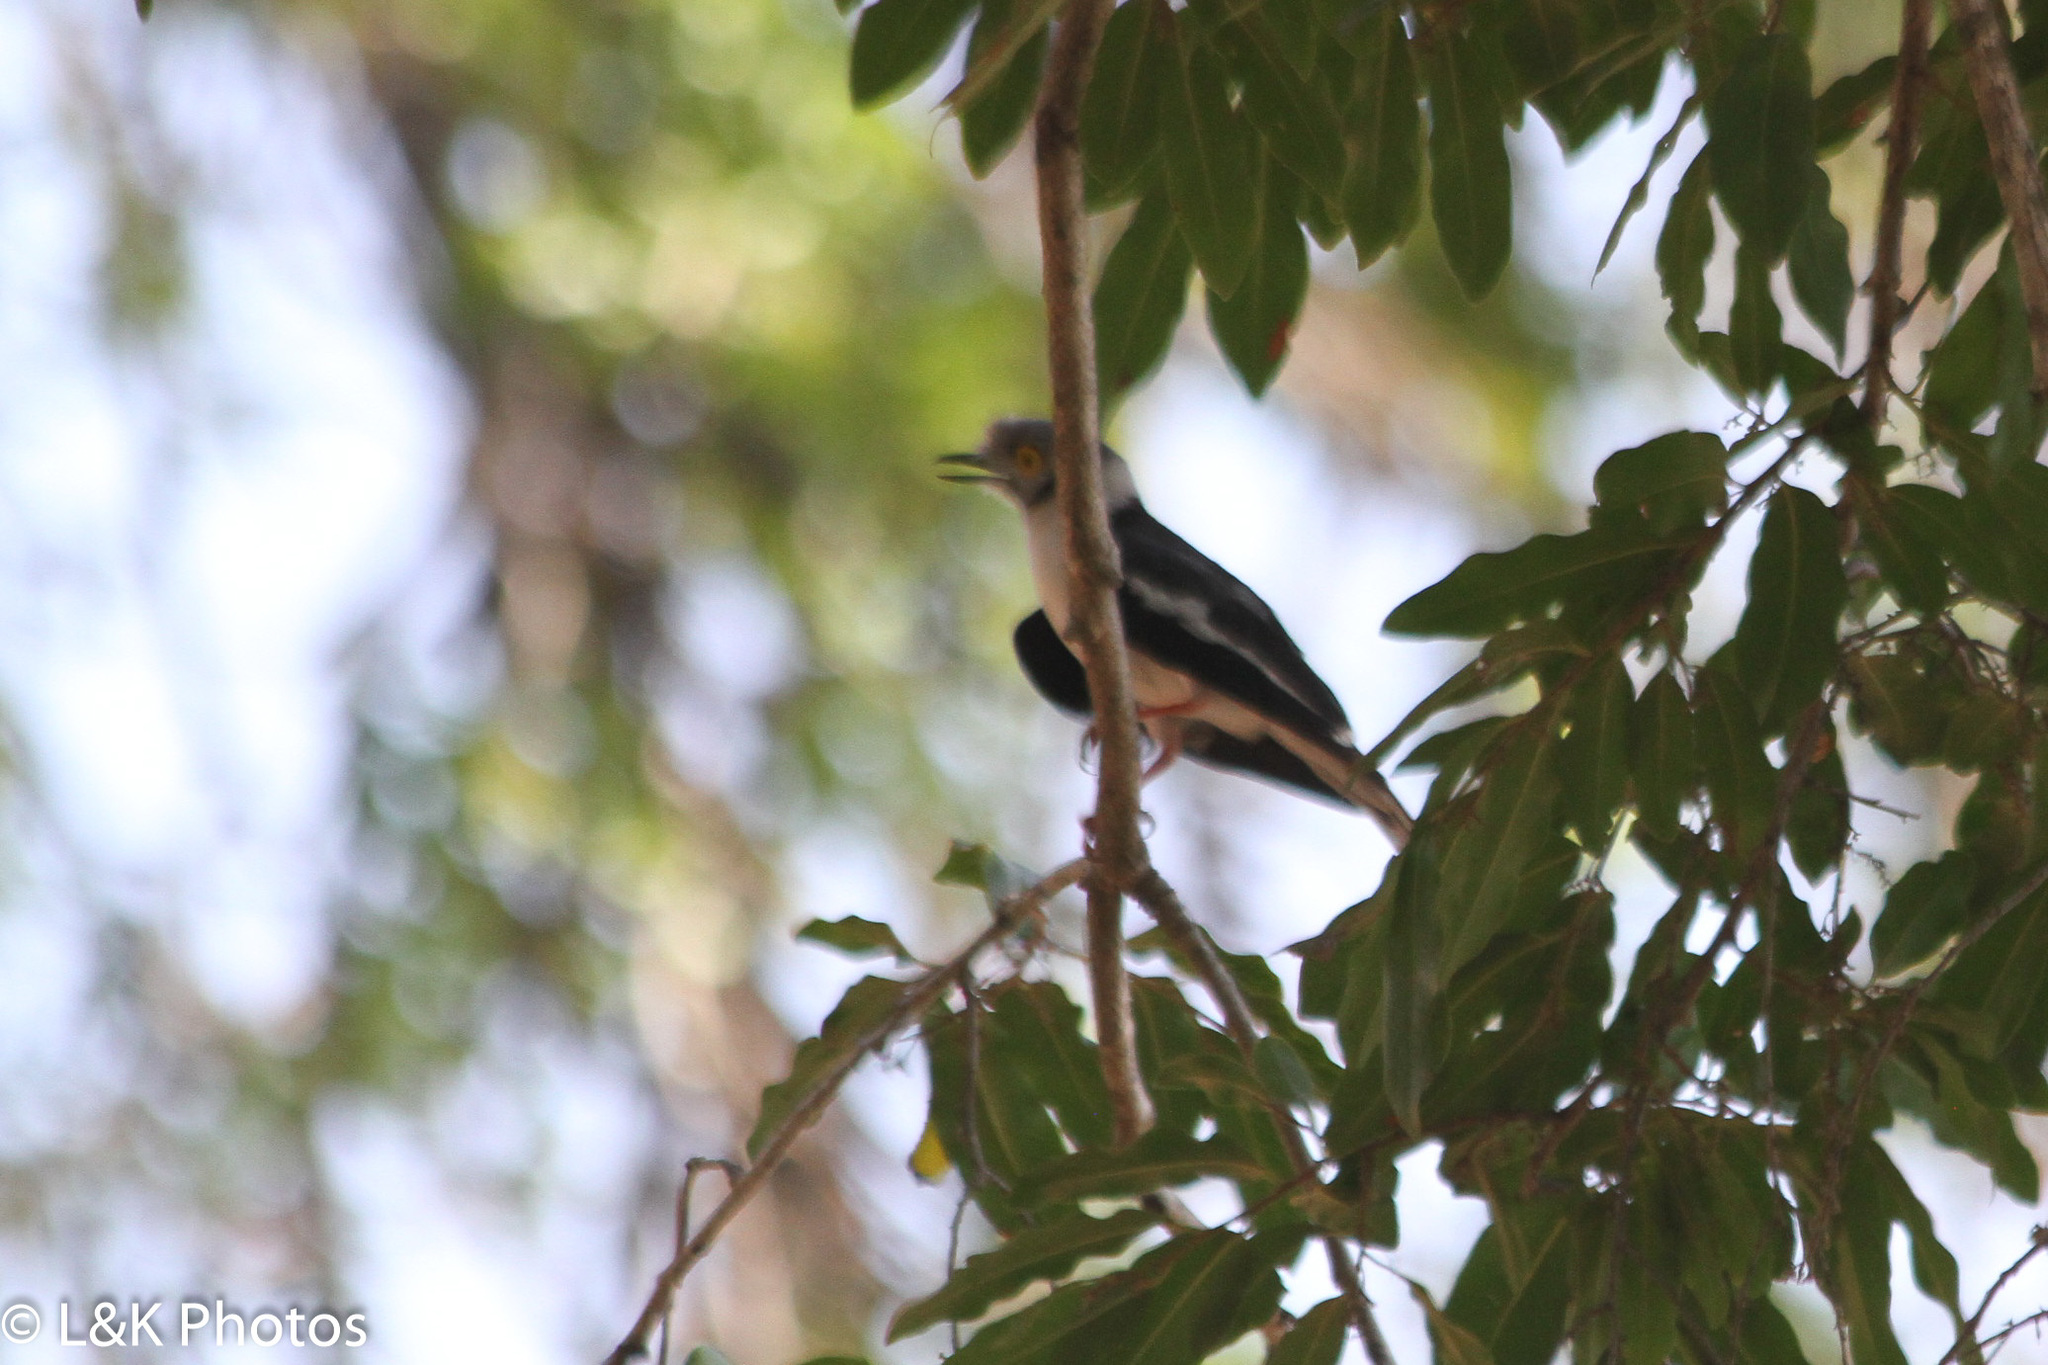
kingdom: Animalia
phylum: Chordata
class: Aves
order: Passeriformes
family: Prionopidae
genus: Prionops
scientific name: Prionops plumatus
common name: White-crested helmetshrike
